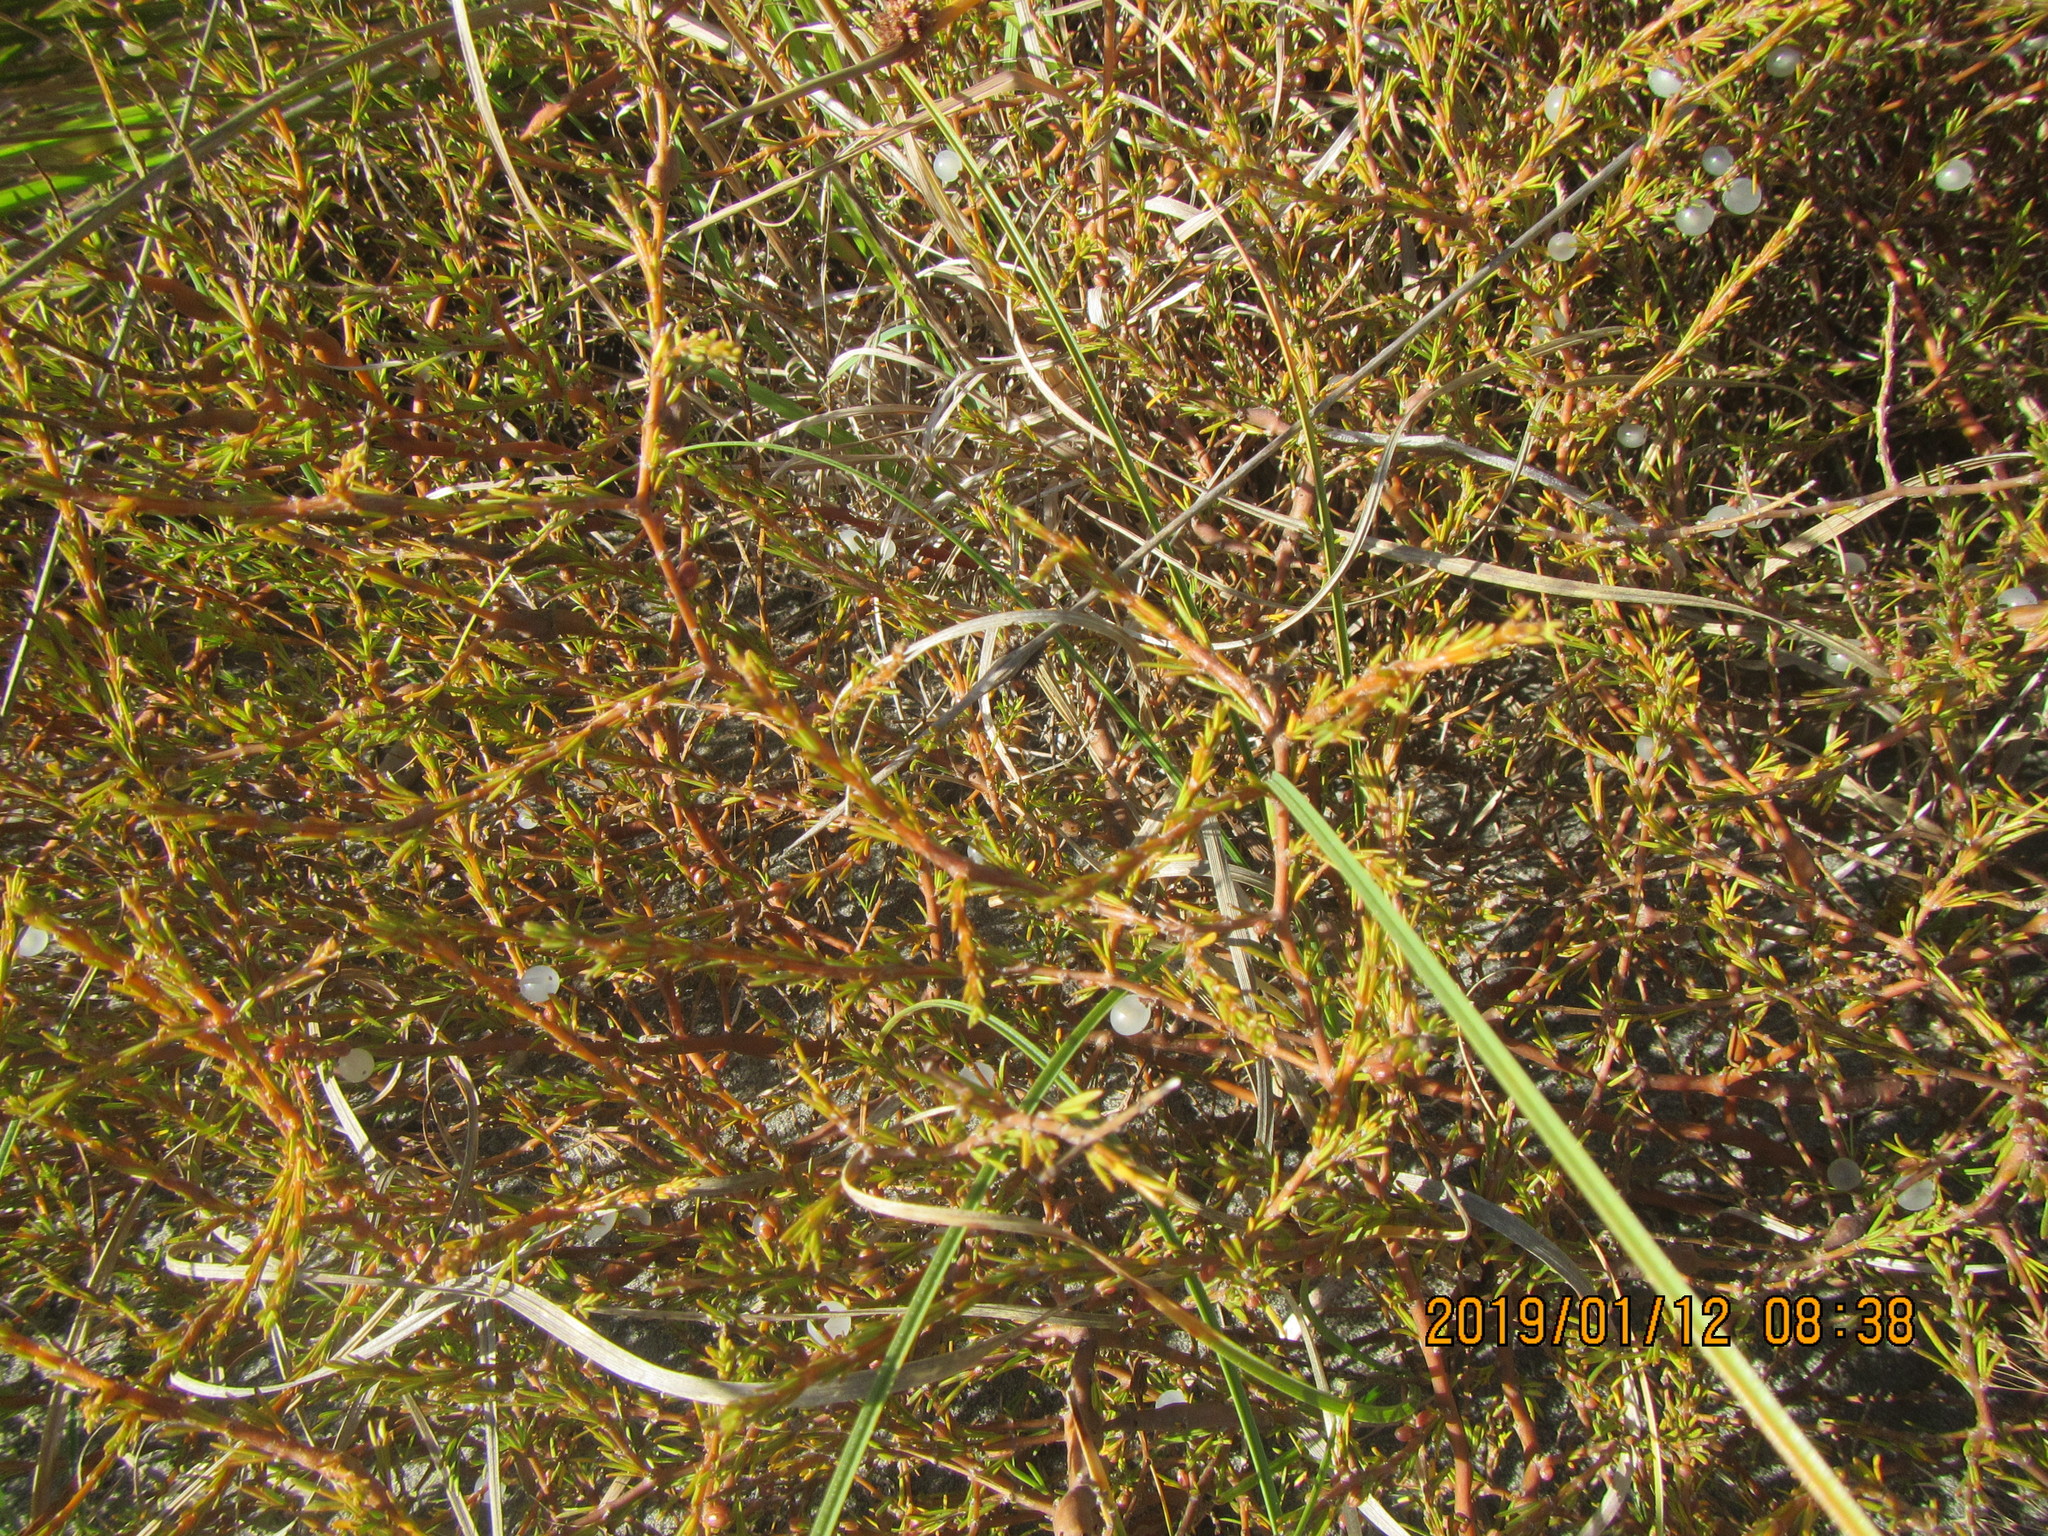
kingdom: Plantae
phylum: Tracheophyta
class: Magnoliopsida
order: Gentianales
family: Rubiaceae
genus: Coprosma
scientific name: Coprosma acerosa
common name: Sand coprosma
